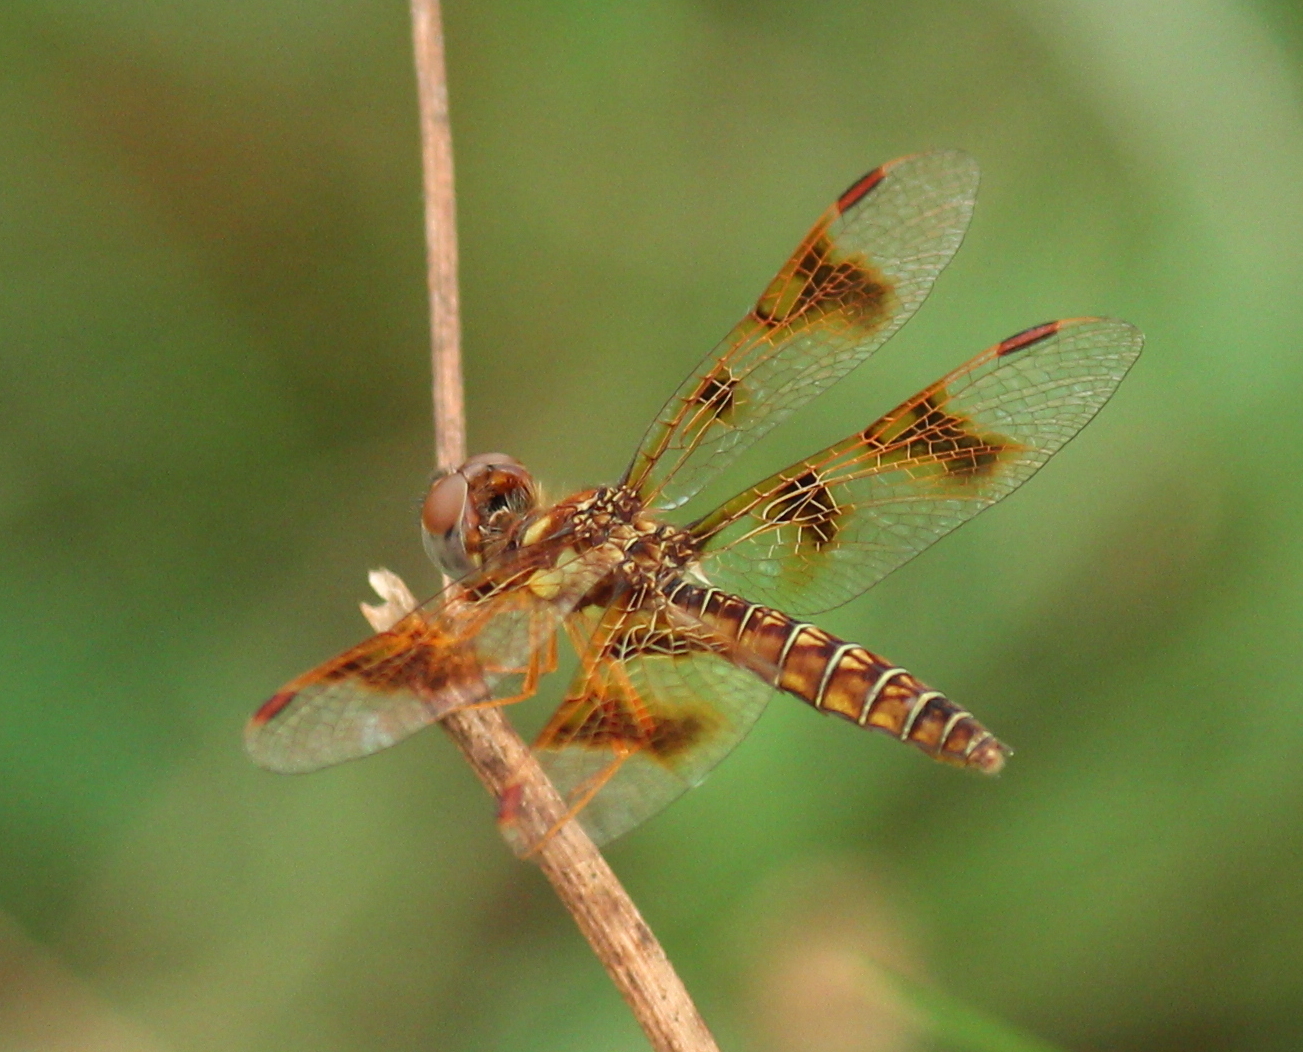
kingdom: Animalia
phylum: Arthropoda
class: Insecta
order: Odonata
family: Libellulidae
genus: Perithemis
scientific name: Perithemis tenera
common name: Eastern amberwing
